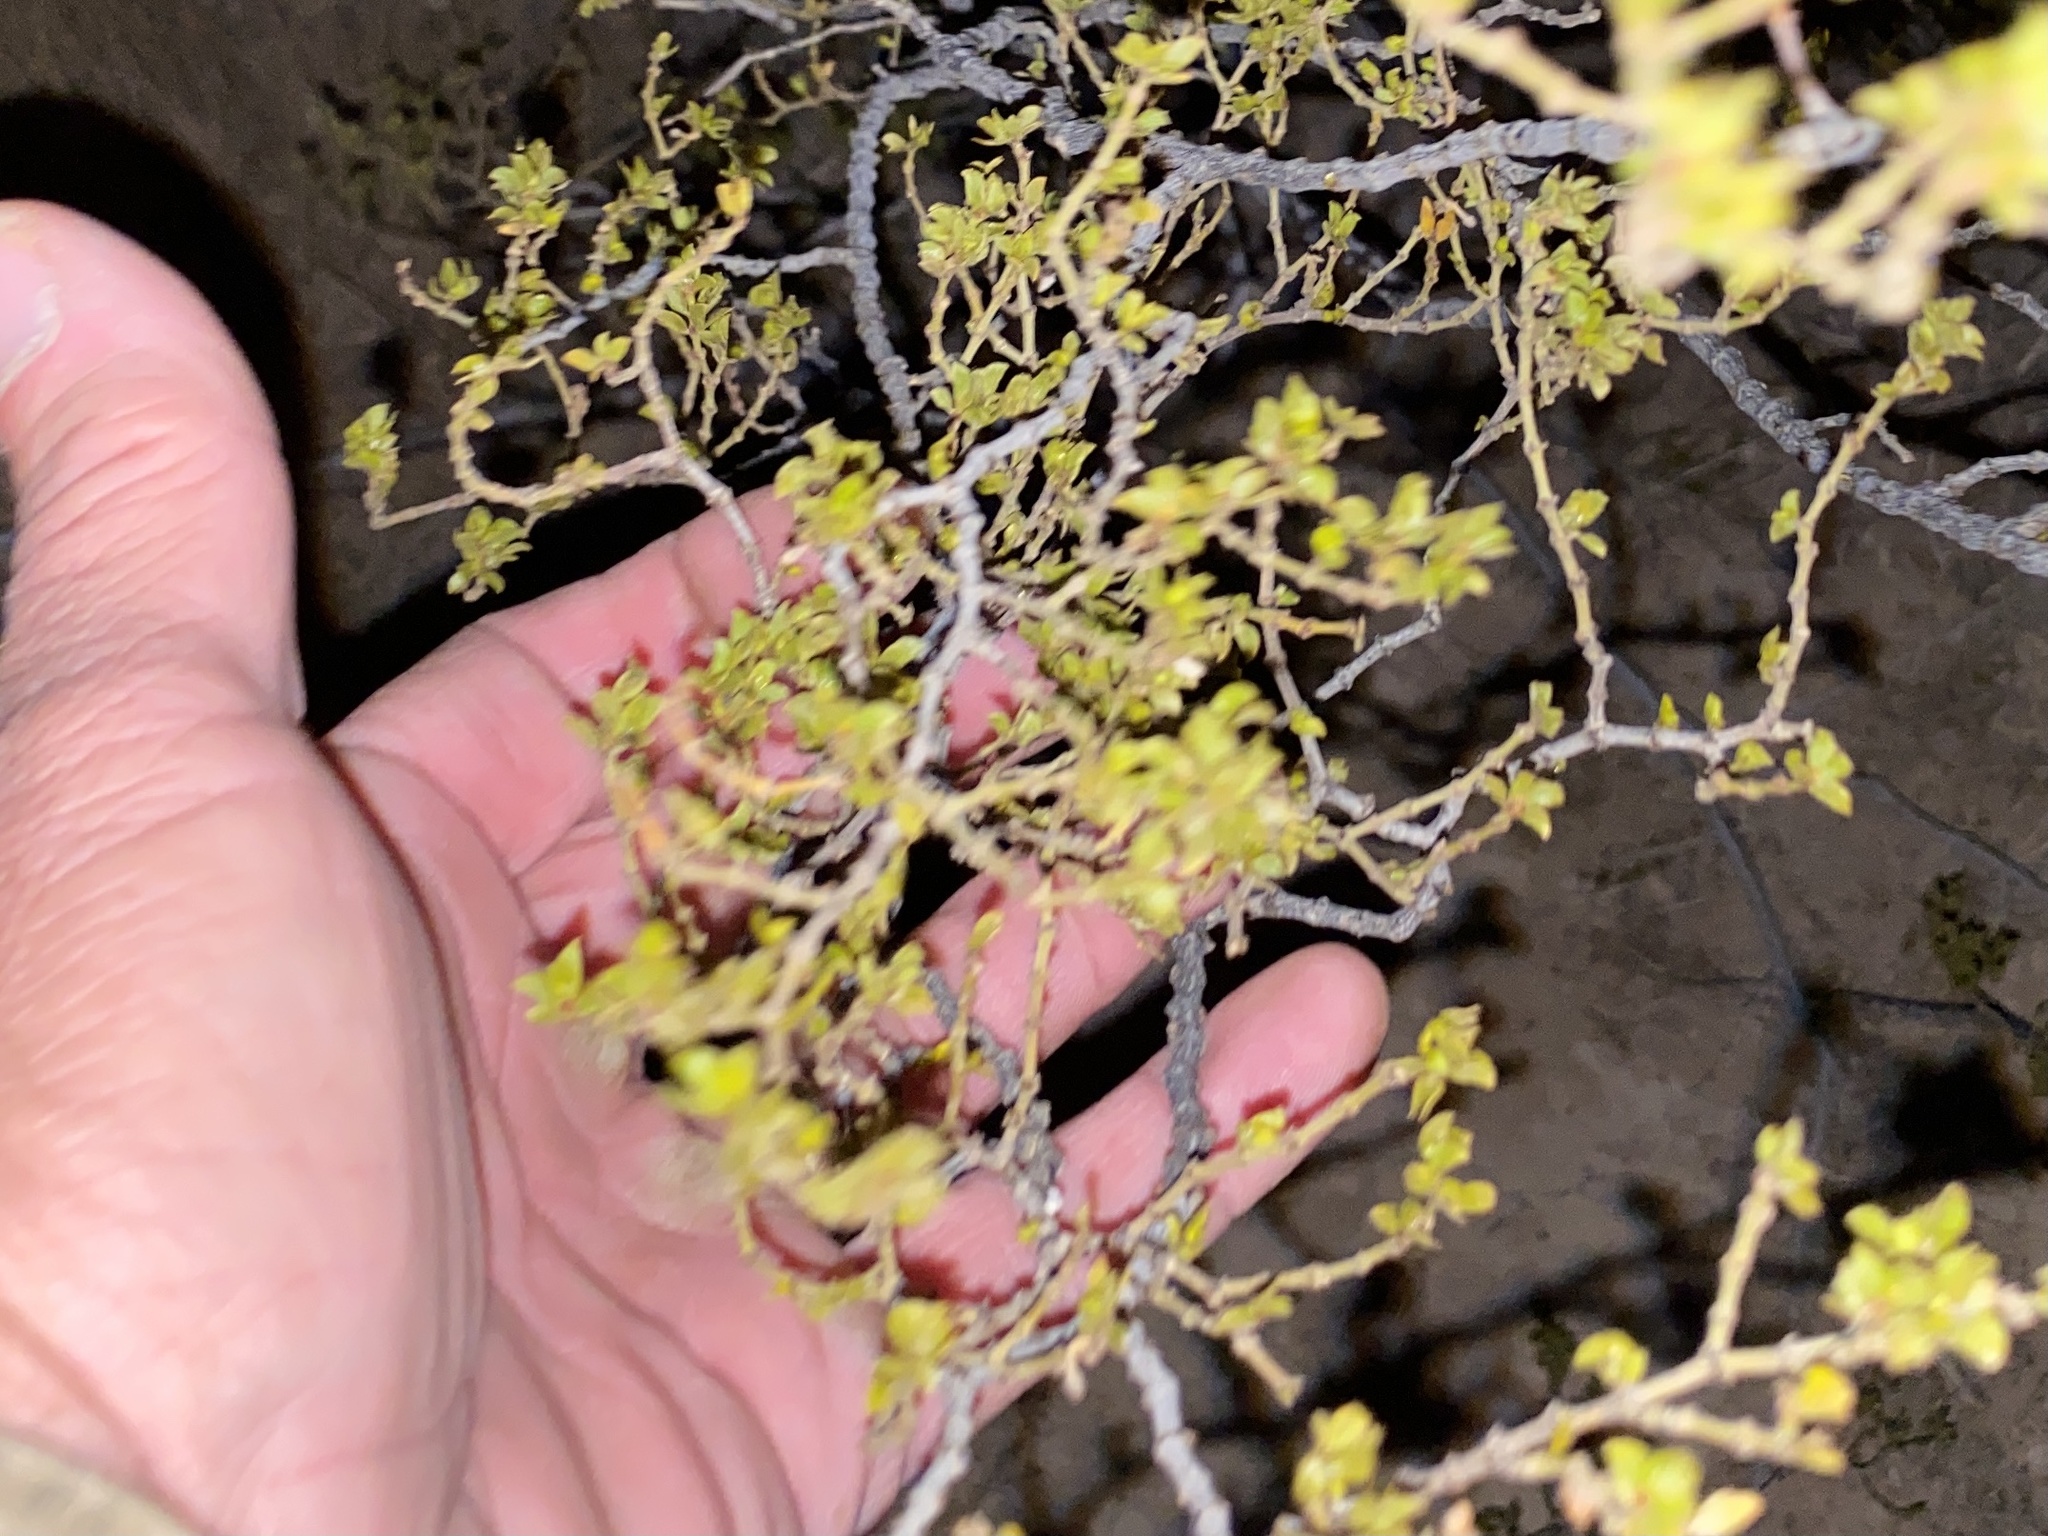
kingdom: Plantae
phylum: Tracheophyta
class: Magnoliopsida
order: Zygophyllales
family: Zygophyllaceae
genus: Larrea
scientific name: Larrea tridentata
